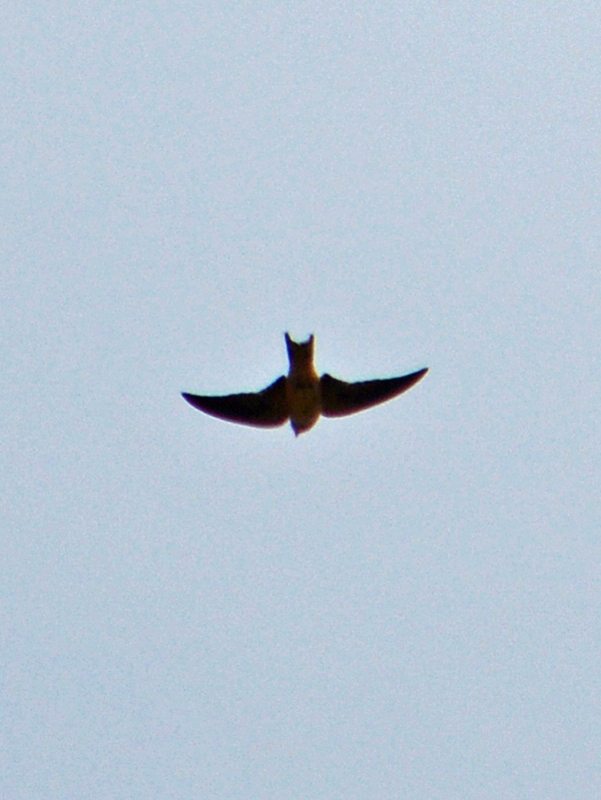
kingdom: Animalia
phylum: Chordata
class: Aves
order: Passeriformes
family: Hirundinidae
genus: Hirundo
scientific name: Hirundo rustica
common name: Barn swallow
